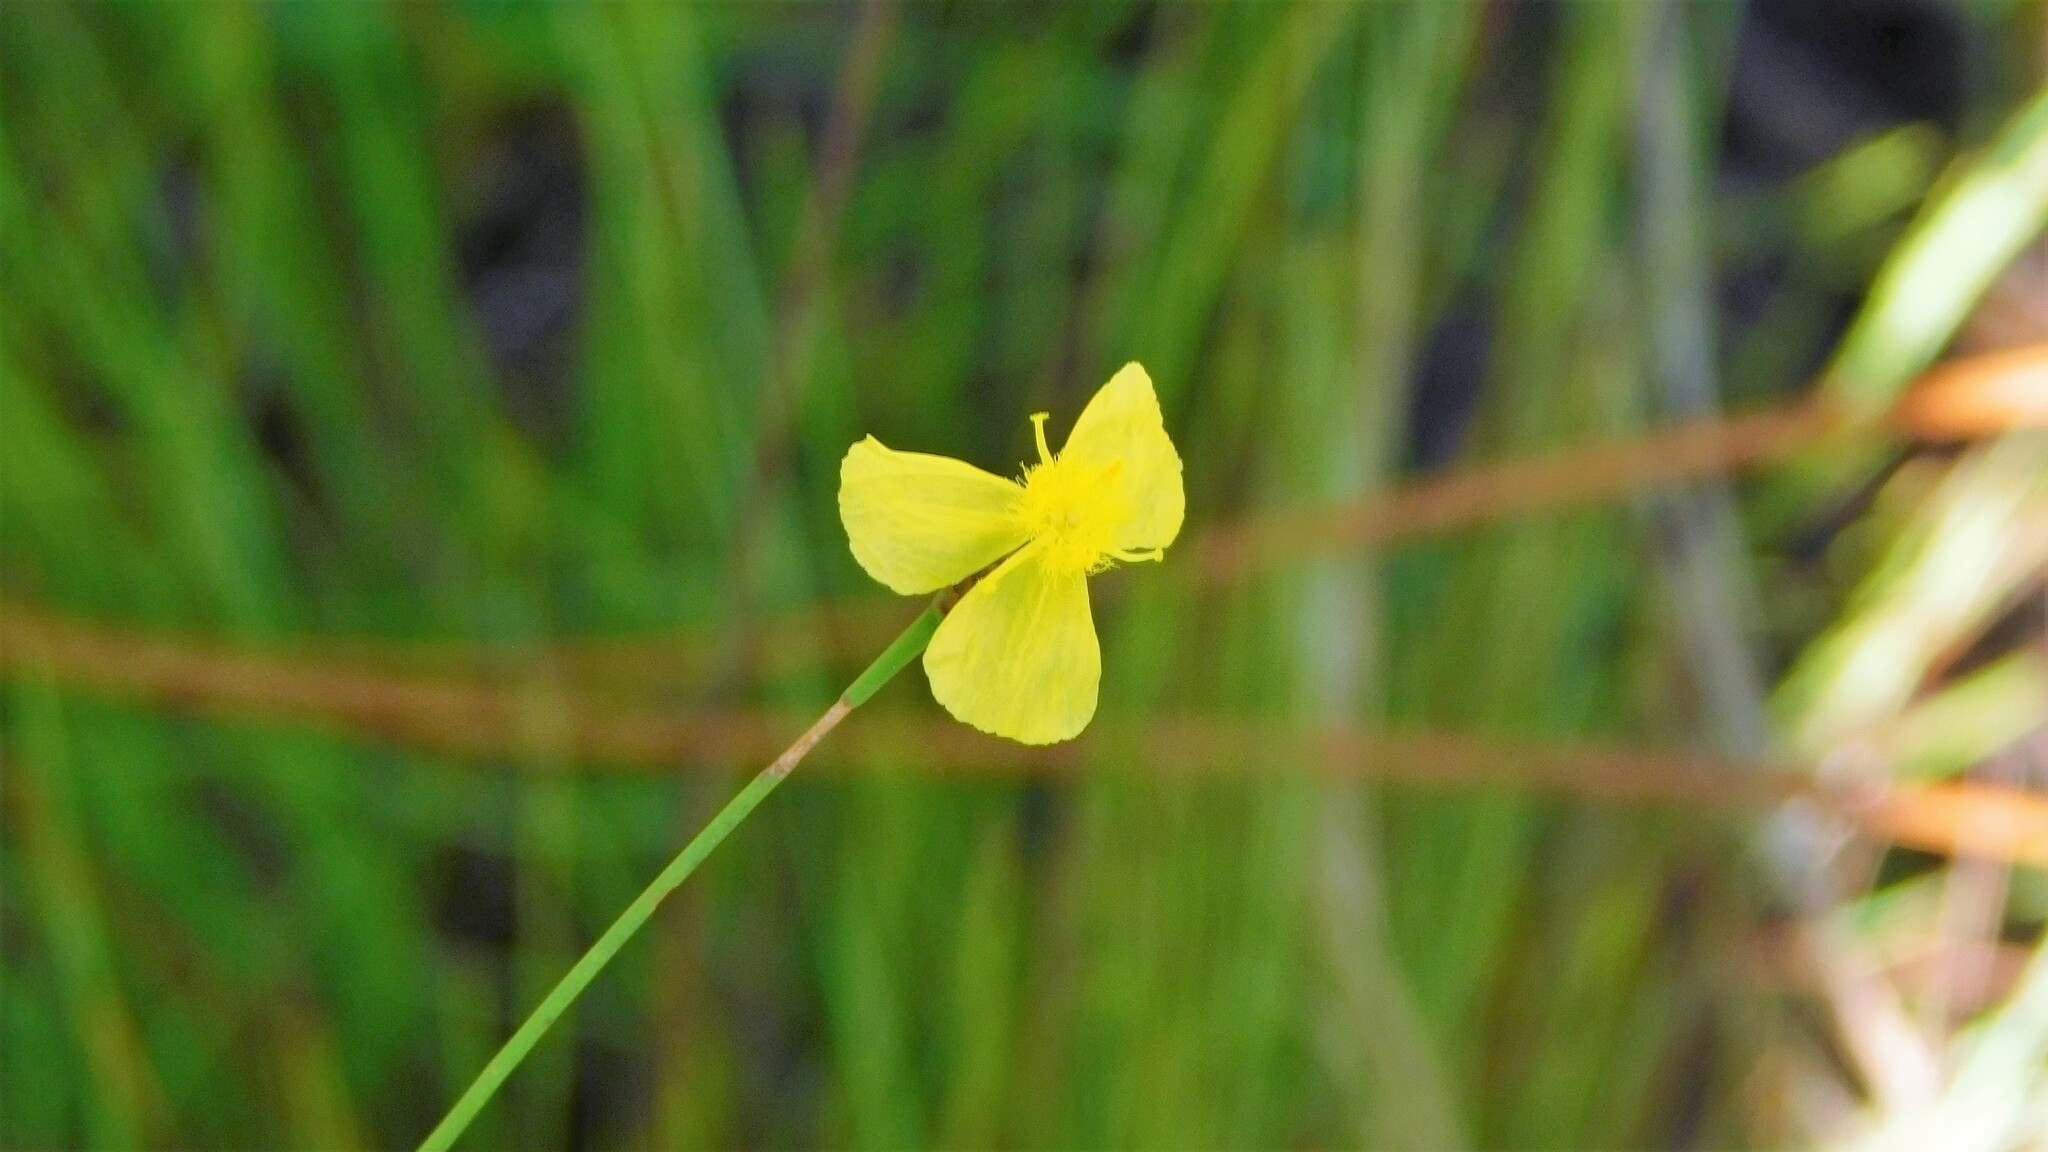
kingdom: Plantae
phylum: Tracheophyta
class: Liliopsida
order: Poales
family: Xyridaceae
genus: Xyris
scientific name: Xyris ambigua
